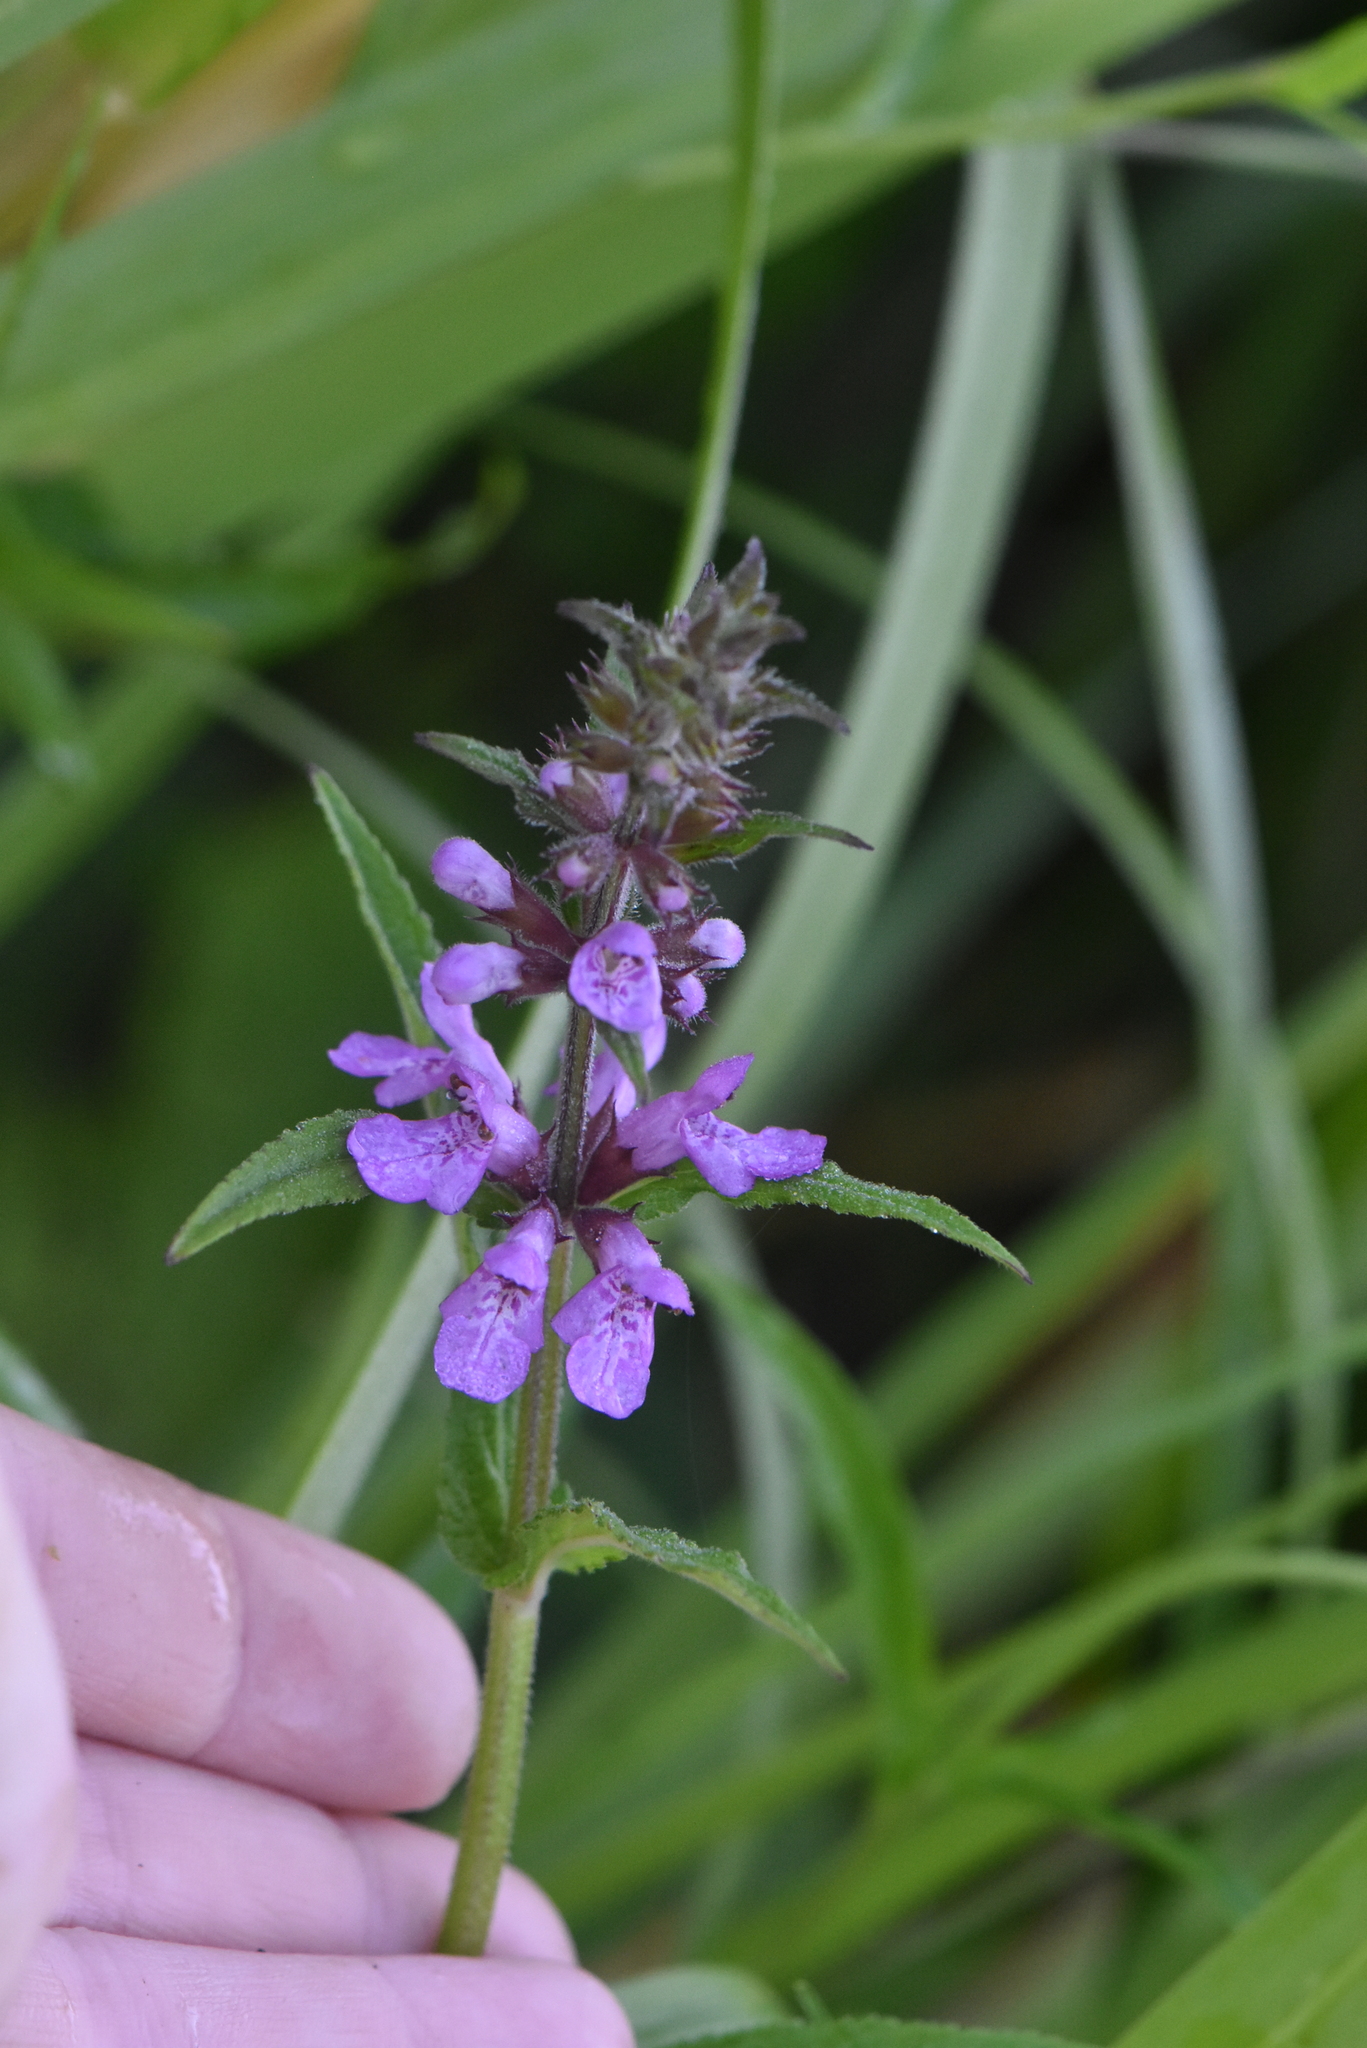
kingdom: Plantae
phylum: Tracheophyta
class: Magnoliopsida
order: Lamiales
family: Lamiaceae
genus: Stachys
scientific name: Stachys palustris
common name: Marsh woundwort
